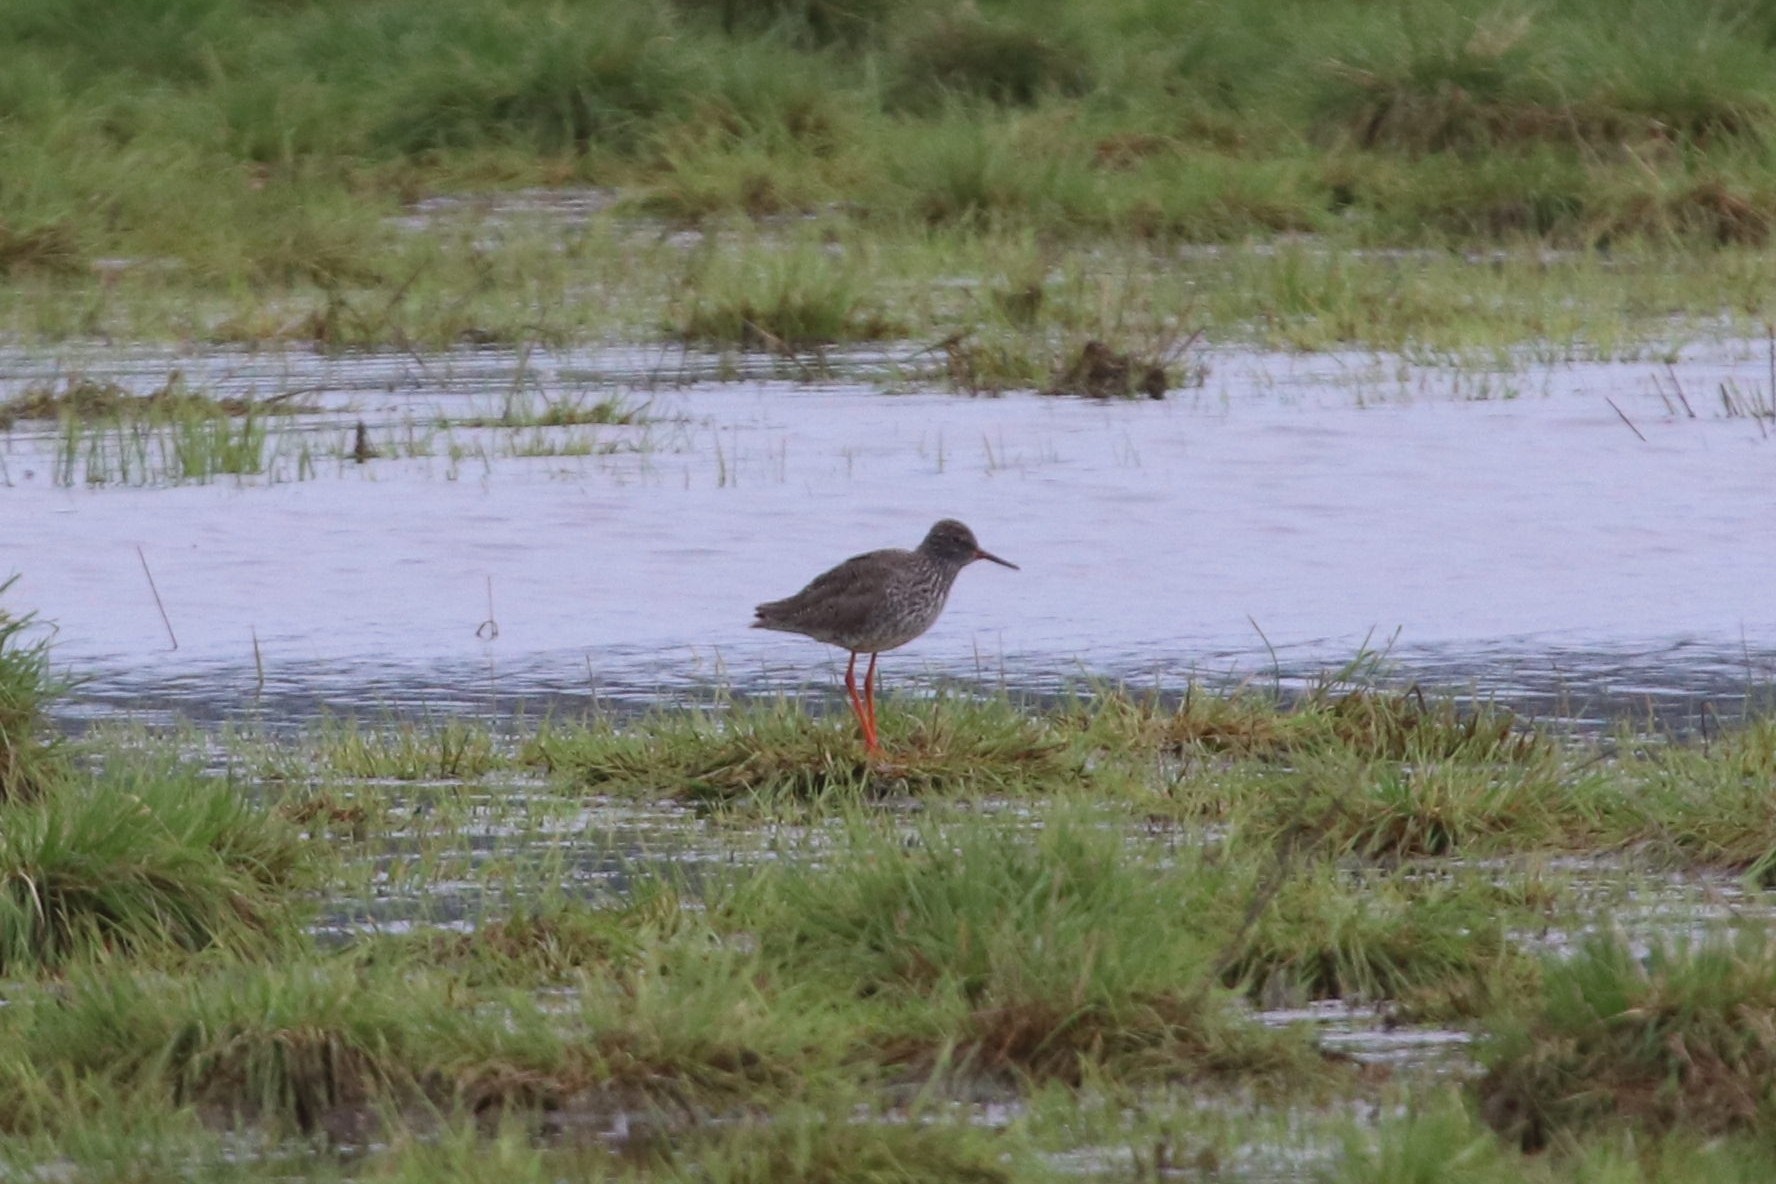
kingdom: Animalia
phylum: Chordata
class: Aves
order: Charadriiformes
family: Scolopacidae
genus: Tringa
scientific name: Tringa totanus
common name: Common redshank
